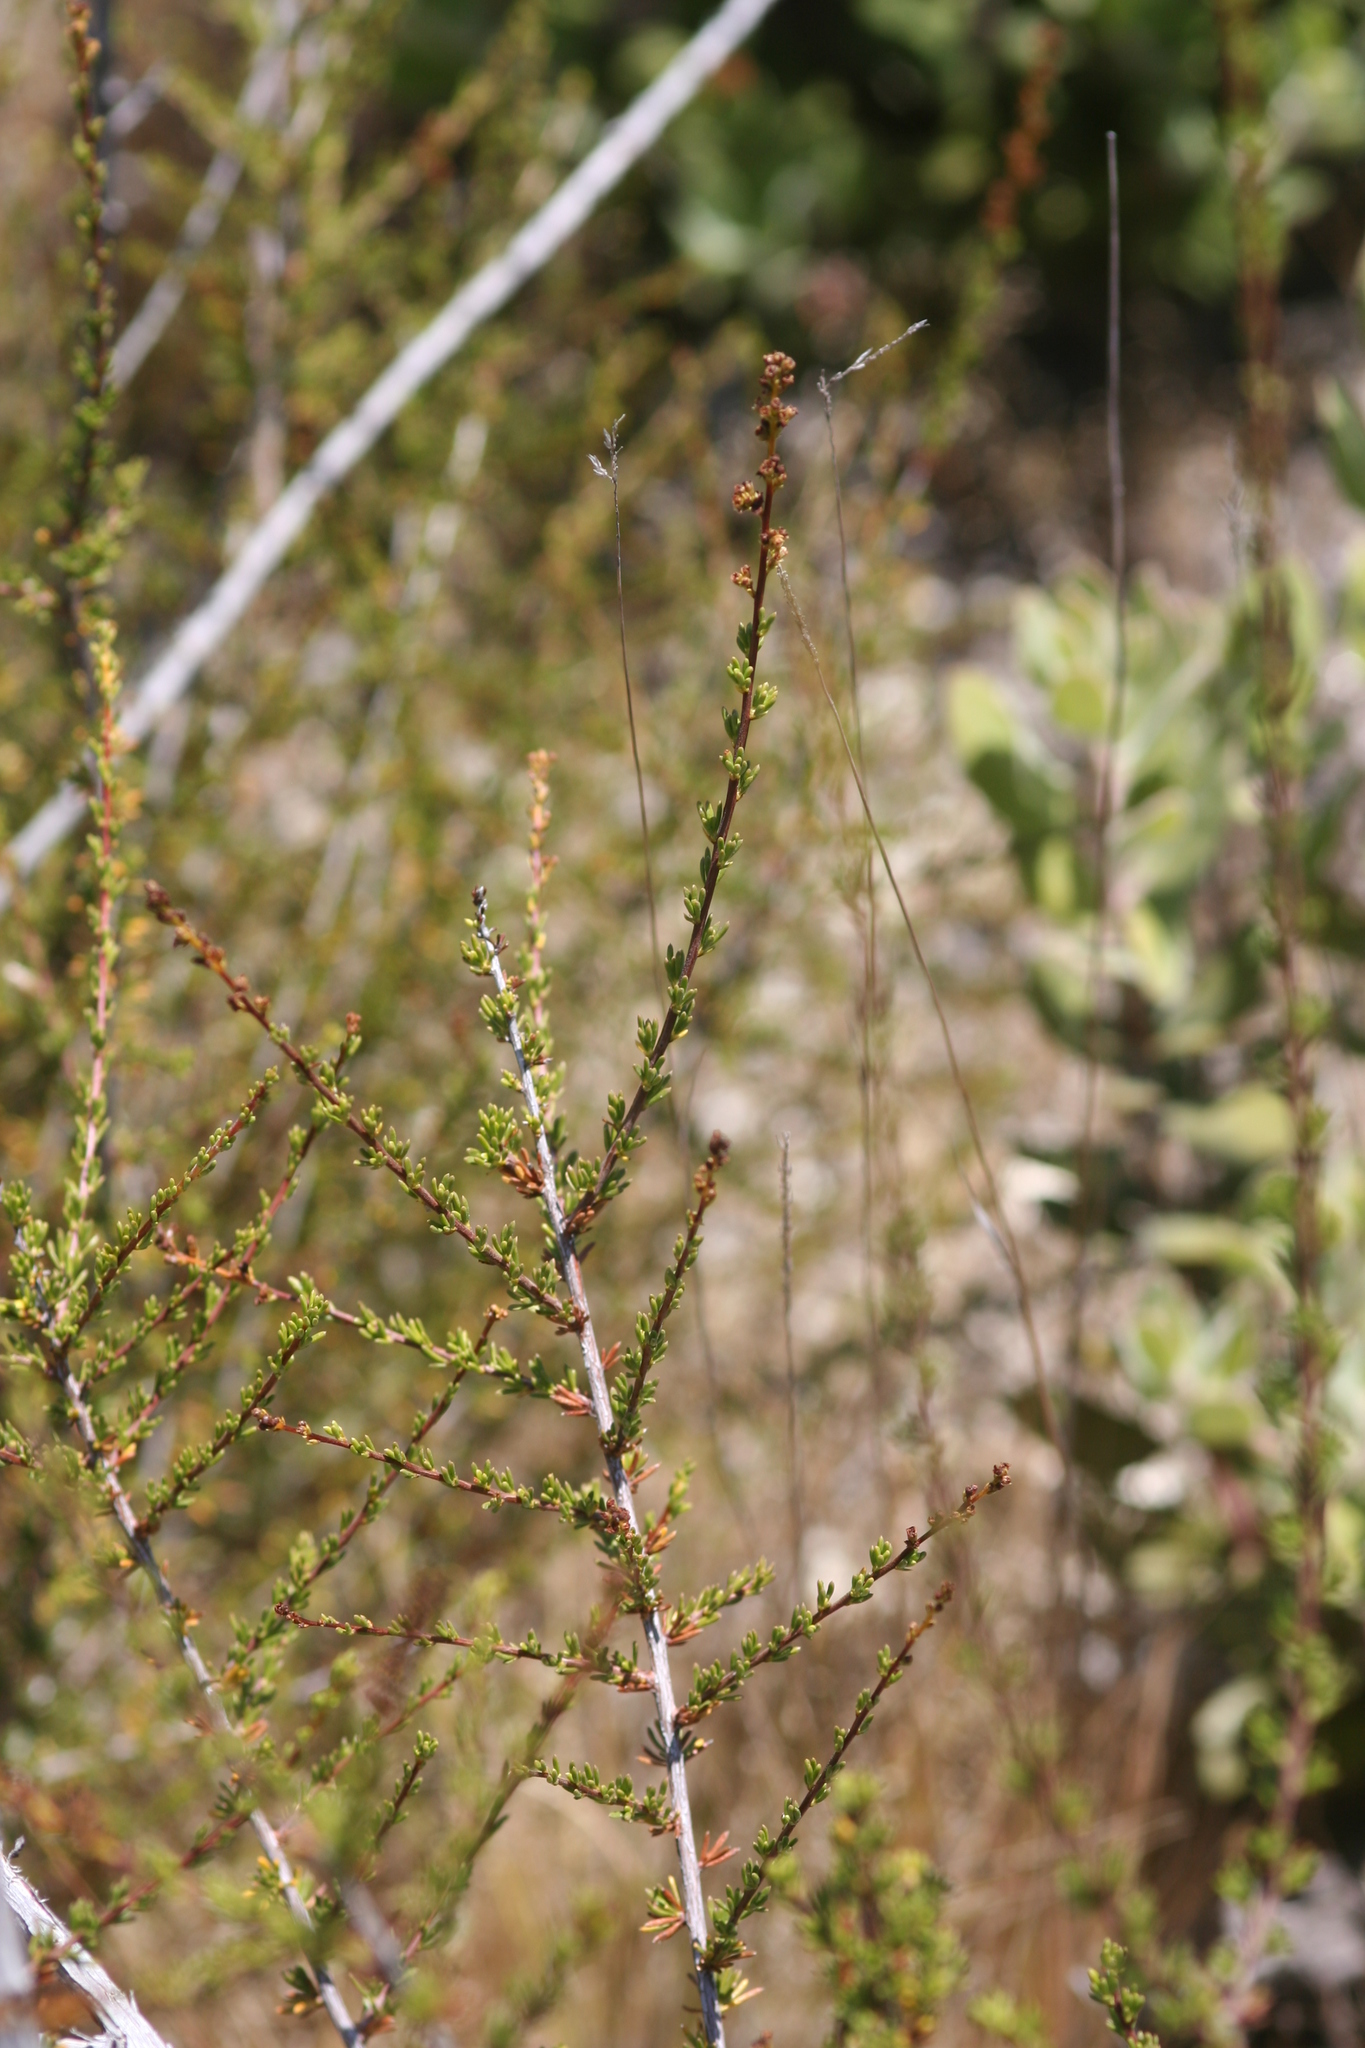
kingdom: Plantae
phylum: Tracheophyta
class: Magnoliopsida
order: Rosales
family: Rosaceae
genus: Adenostoma
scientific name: Adenostoma fasciculatum
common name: Chamise
